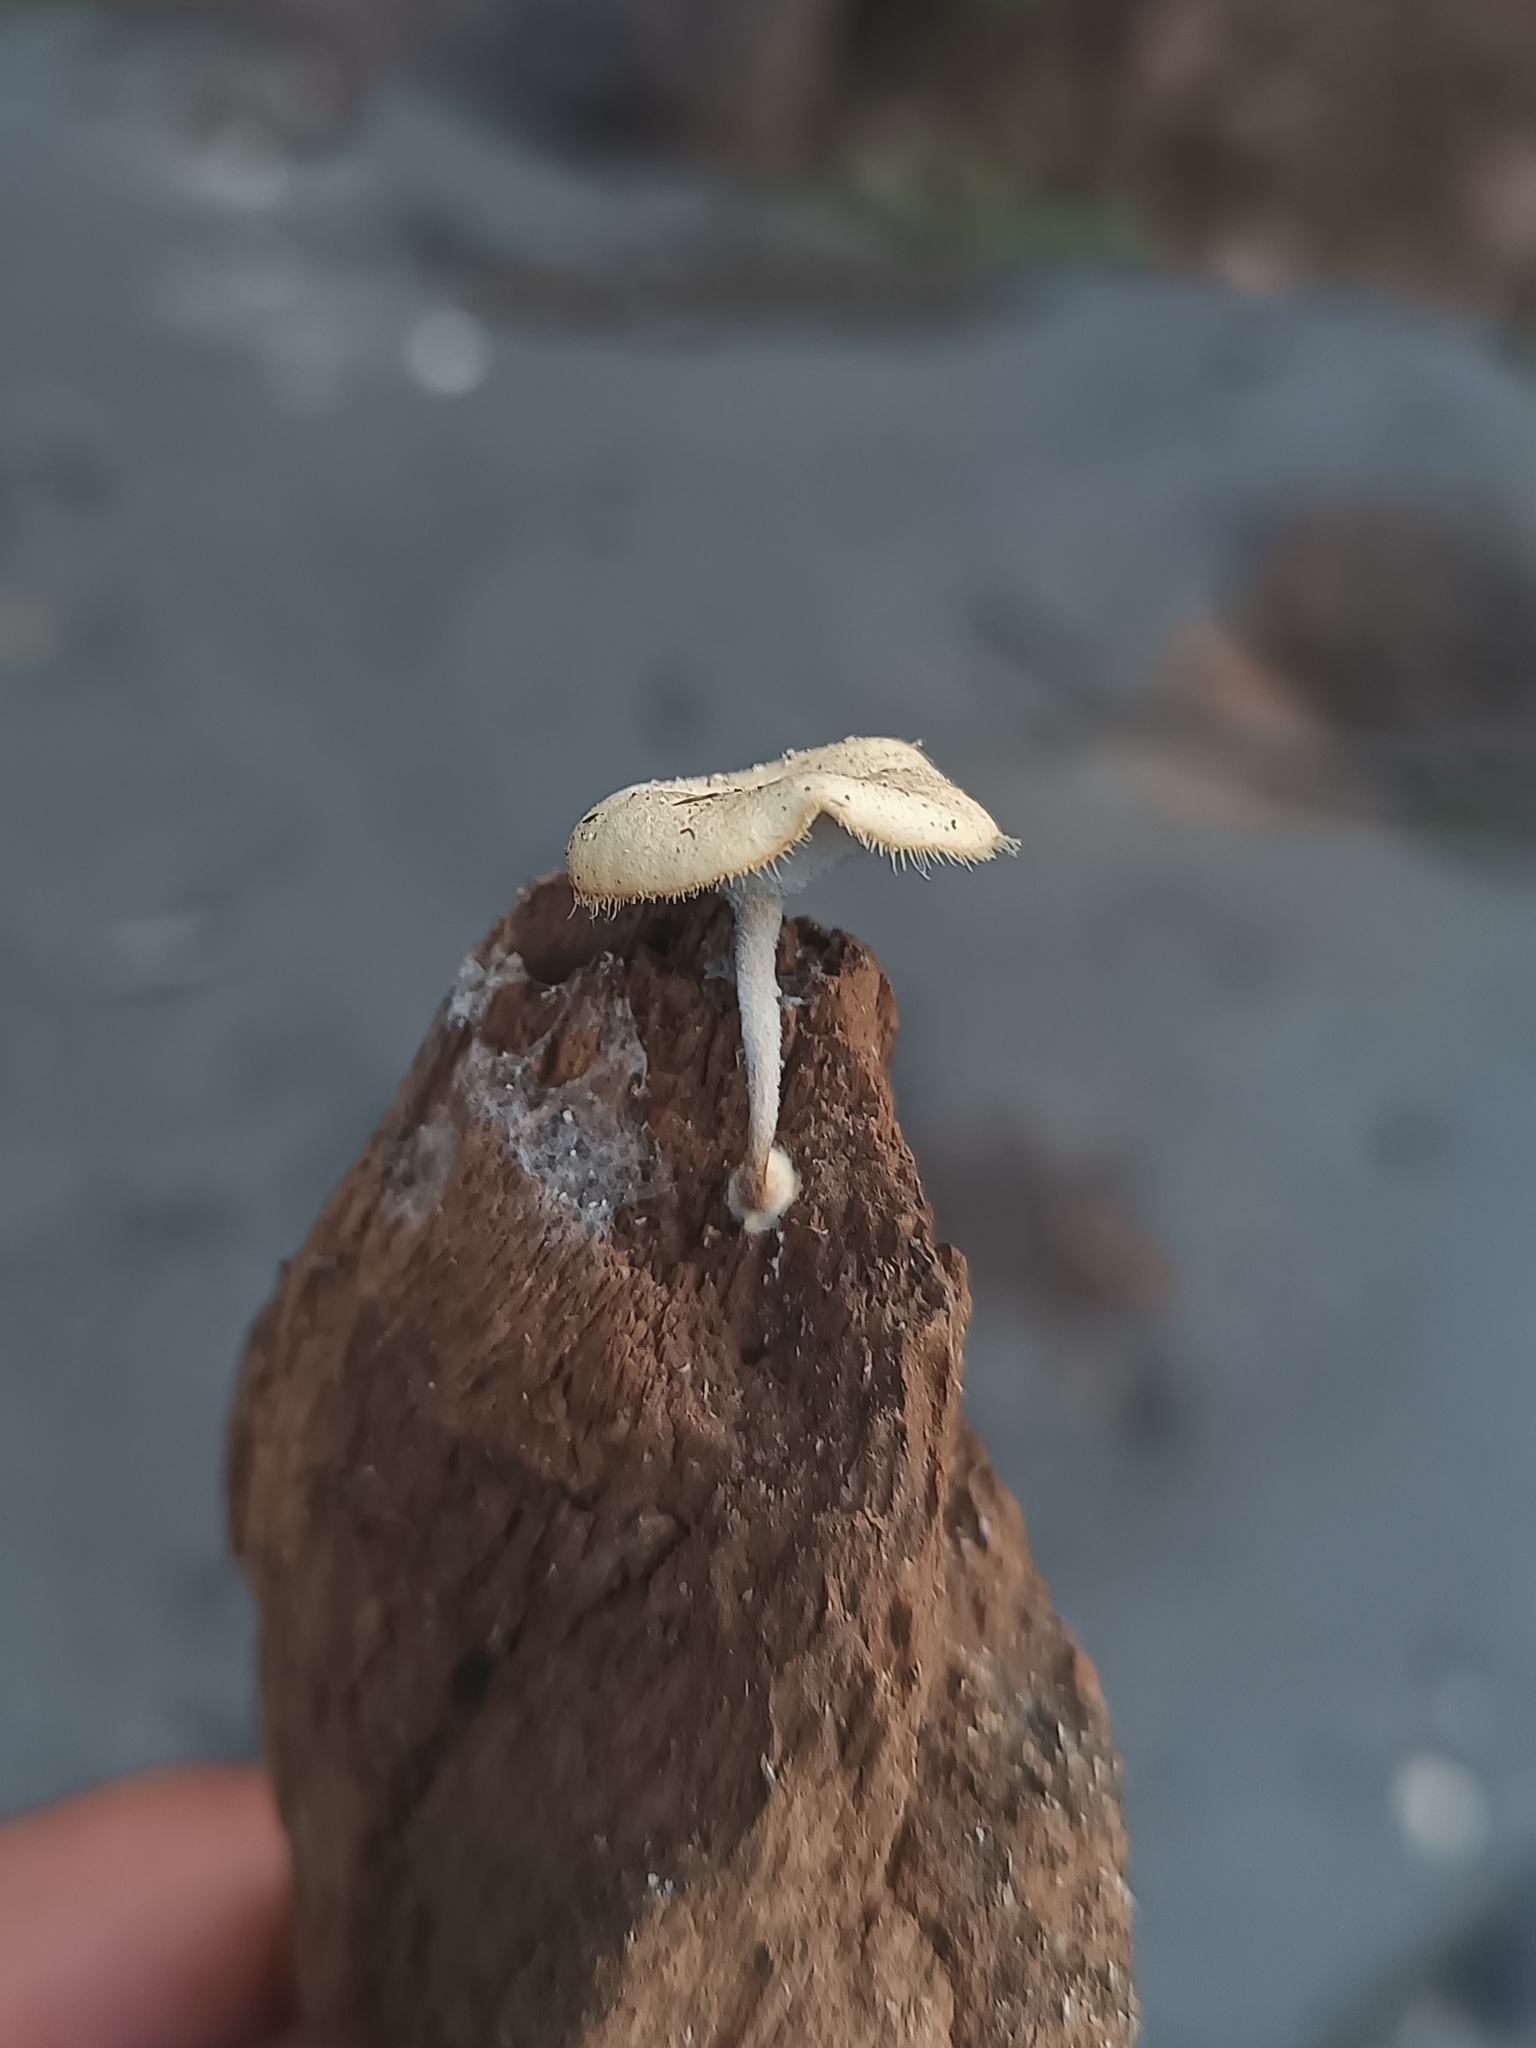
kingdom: Fungi
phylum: Basidiomycota
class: Agaricomycetes
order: Polyporales
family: Polyporaceae
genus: Lentinus
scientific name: Lentinus flexipes
